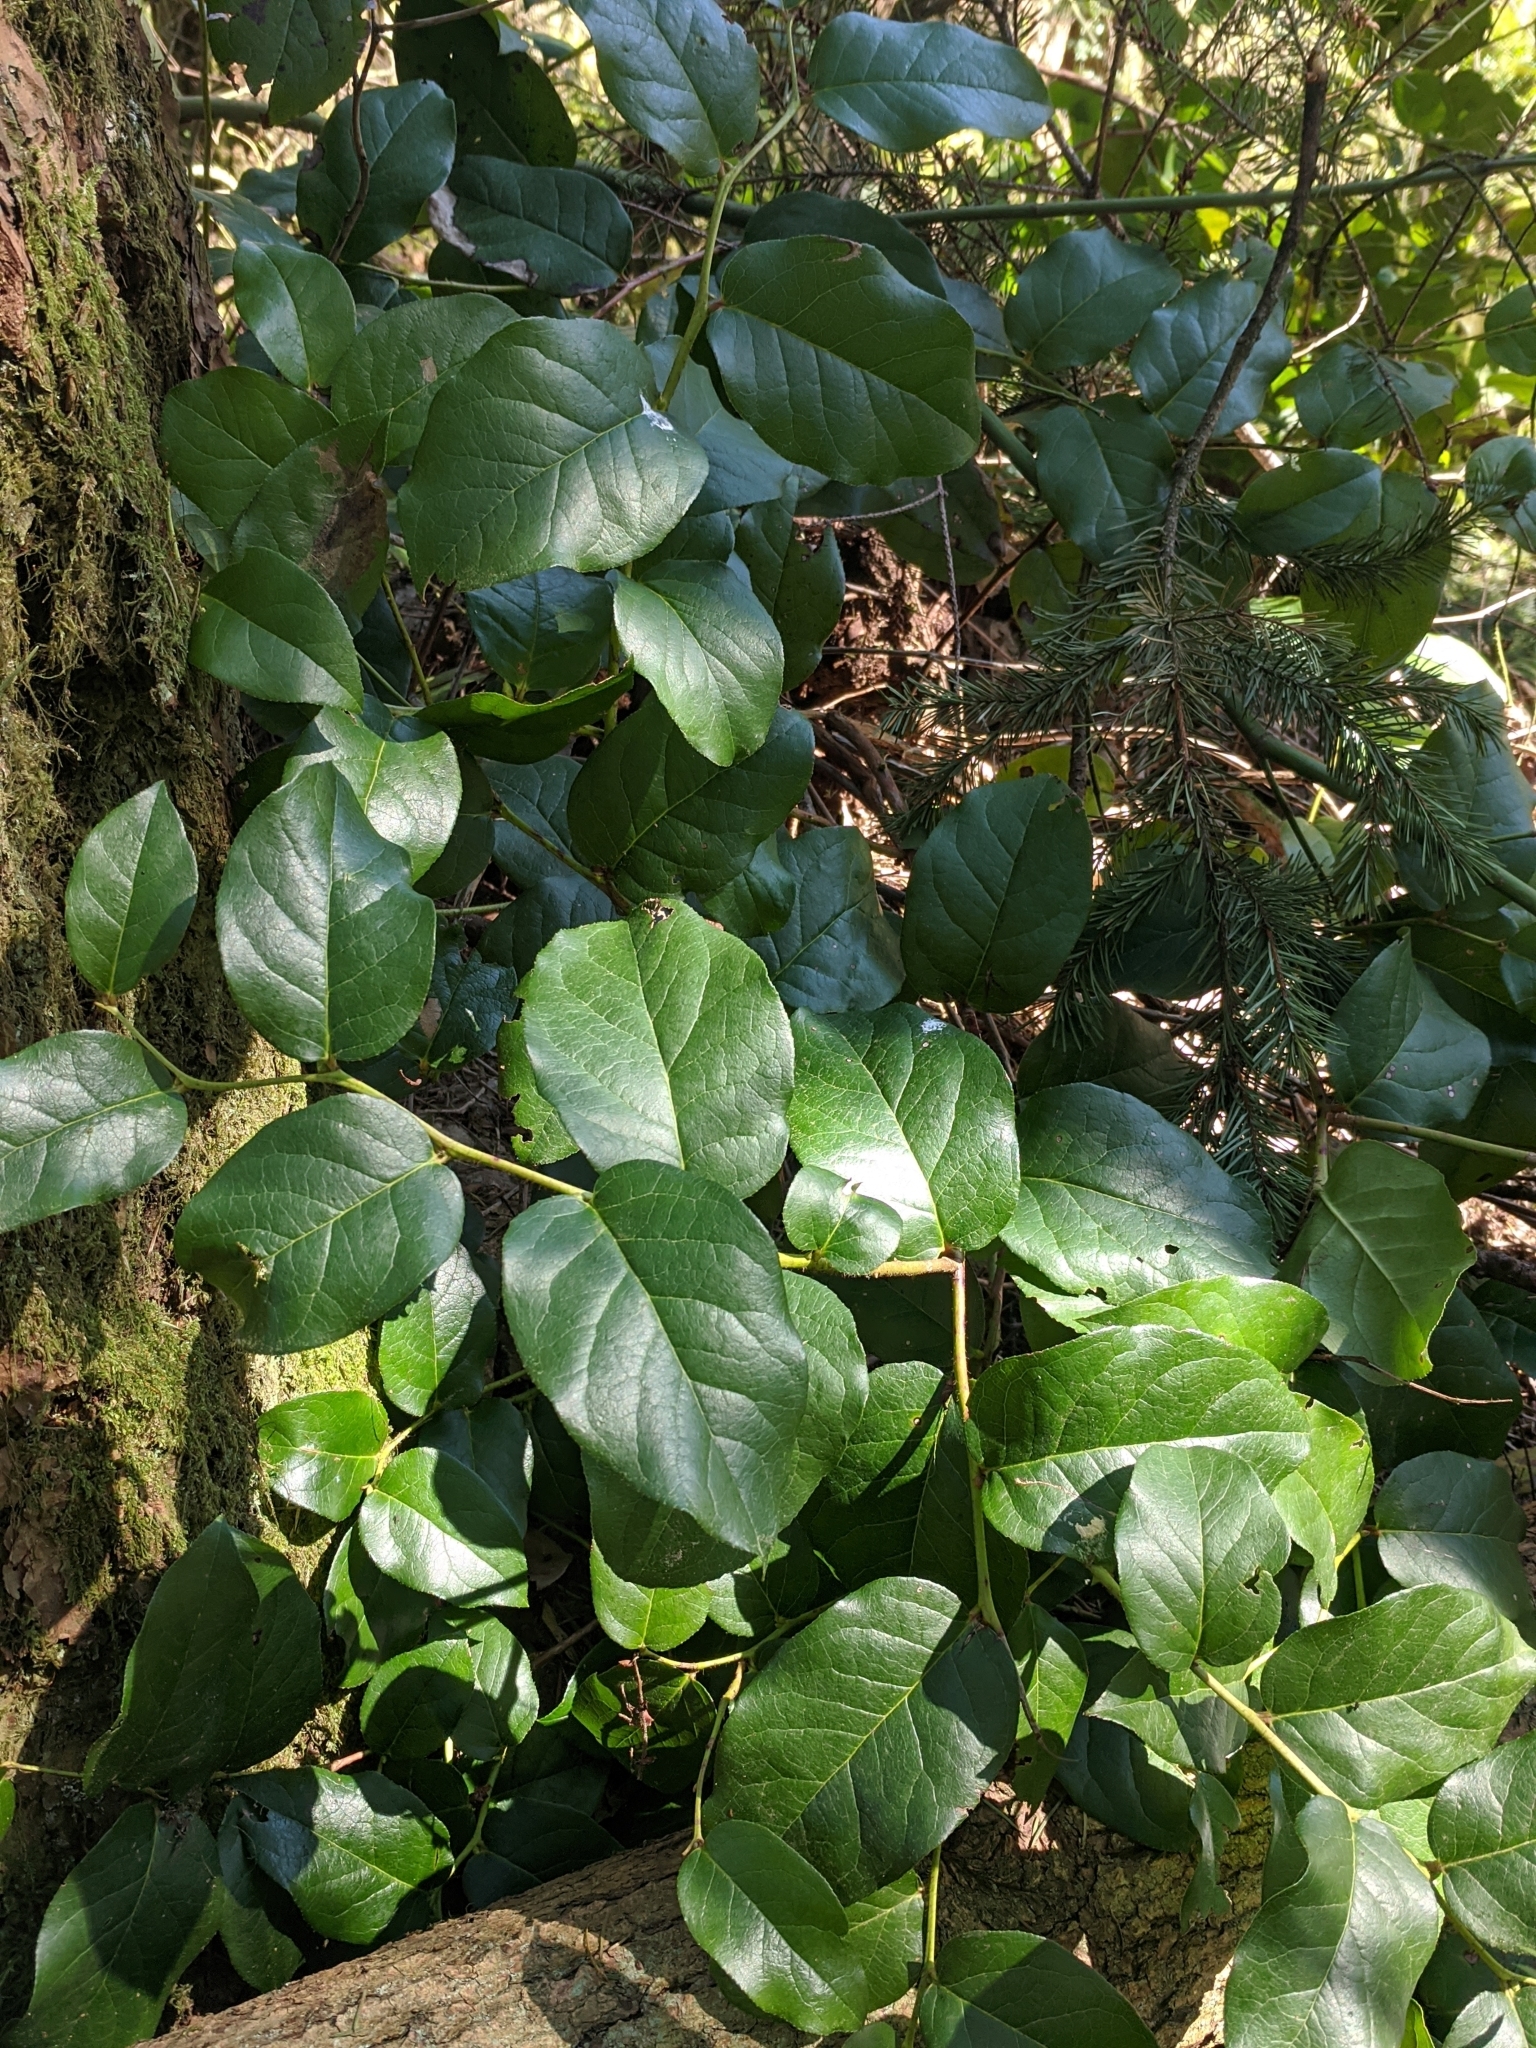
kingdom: Plantae
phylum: Tracheophyta
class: Magnoliopsida
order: Ericales
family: Ericaceae
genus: Gaultheria
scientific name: Gaultheria shallon
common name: Shallon
